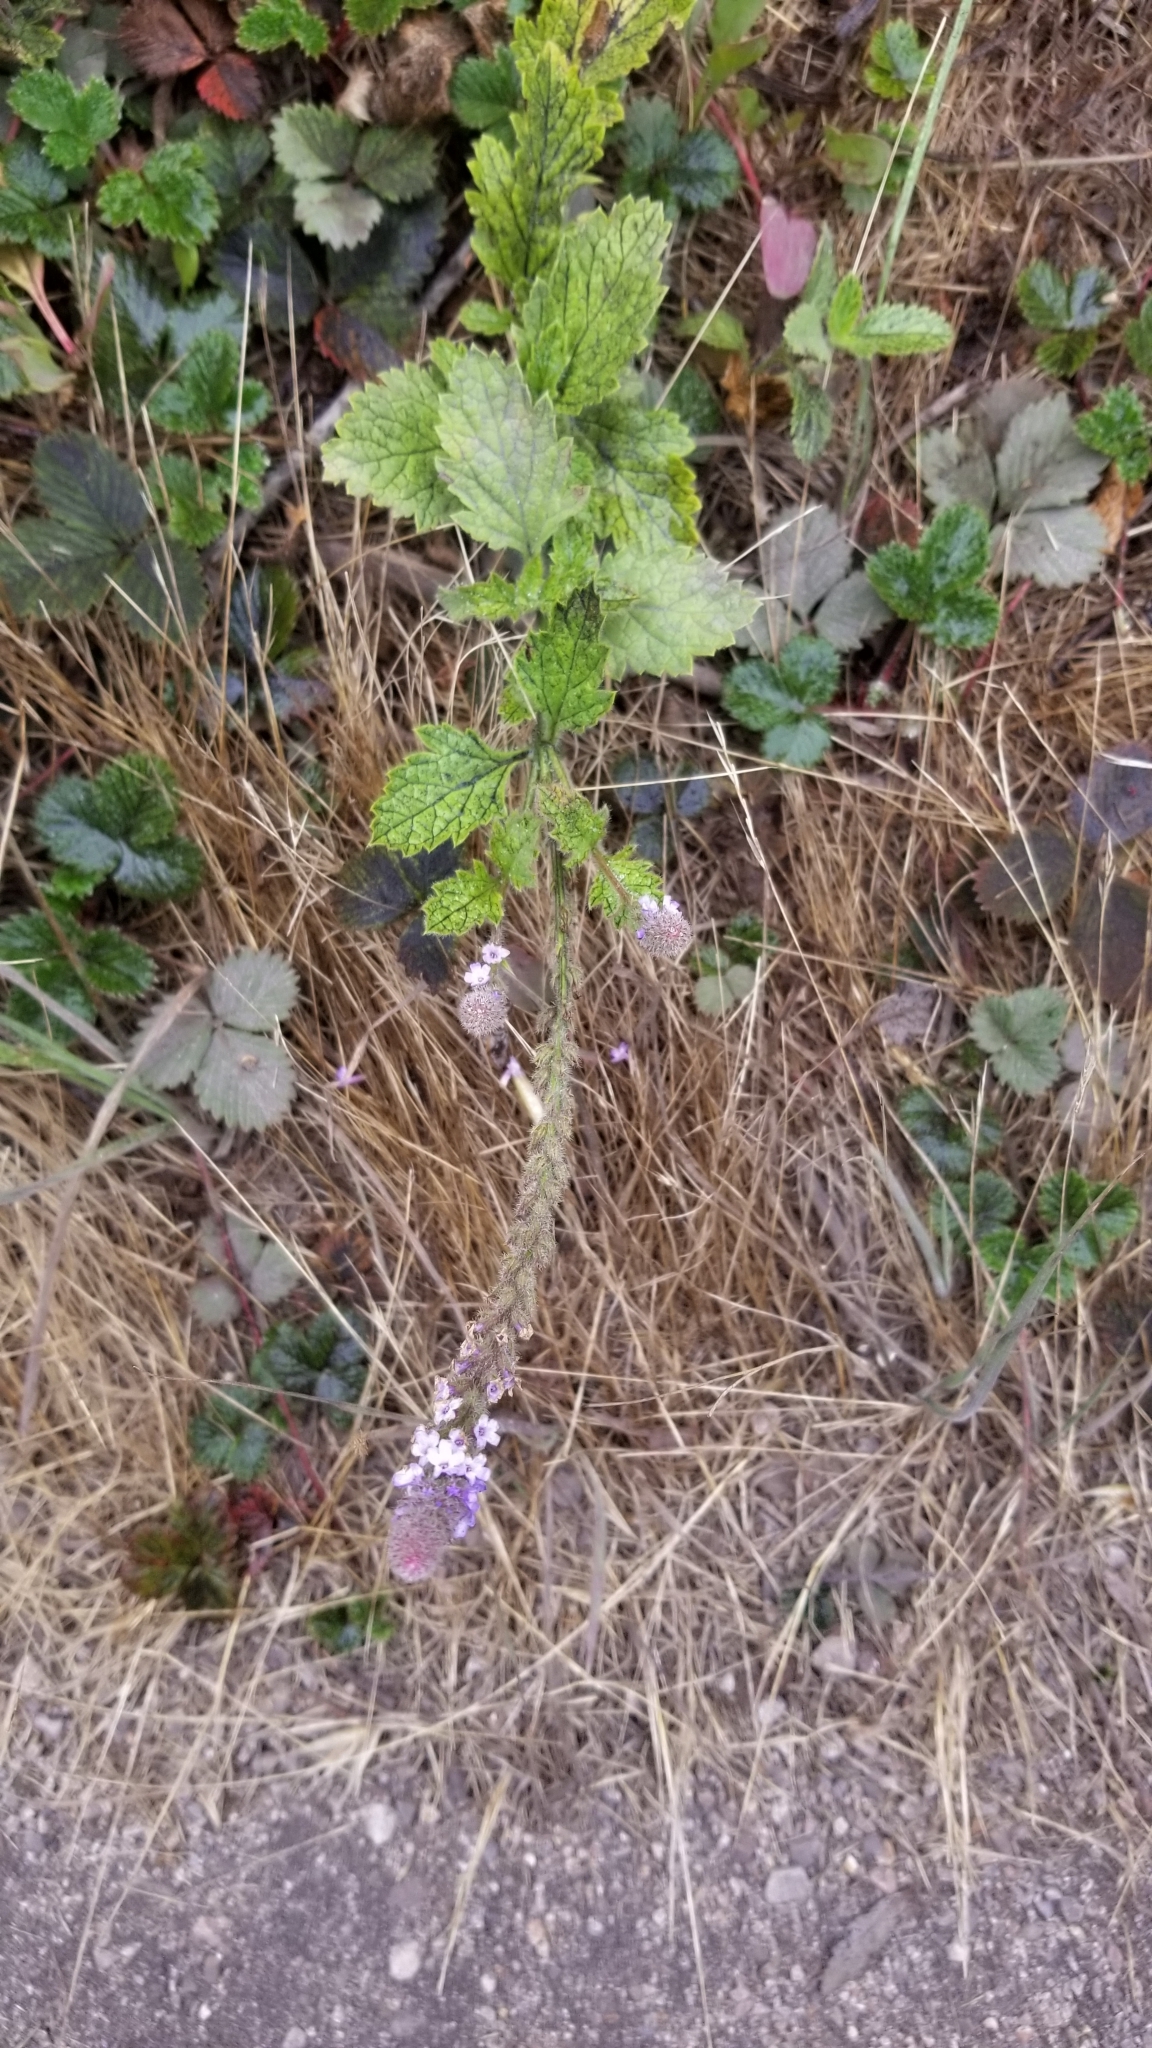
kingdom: Plantae
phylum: Tracheophyta
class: Magnoliopsida
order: Lamiales
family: Verbenaceae
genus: Verbena
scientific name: Verbena lasiostachys
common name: Vervain
